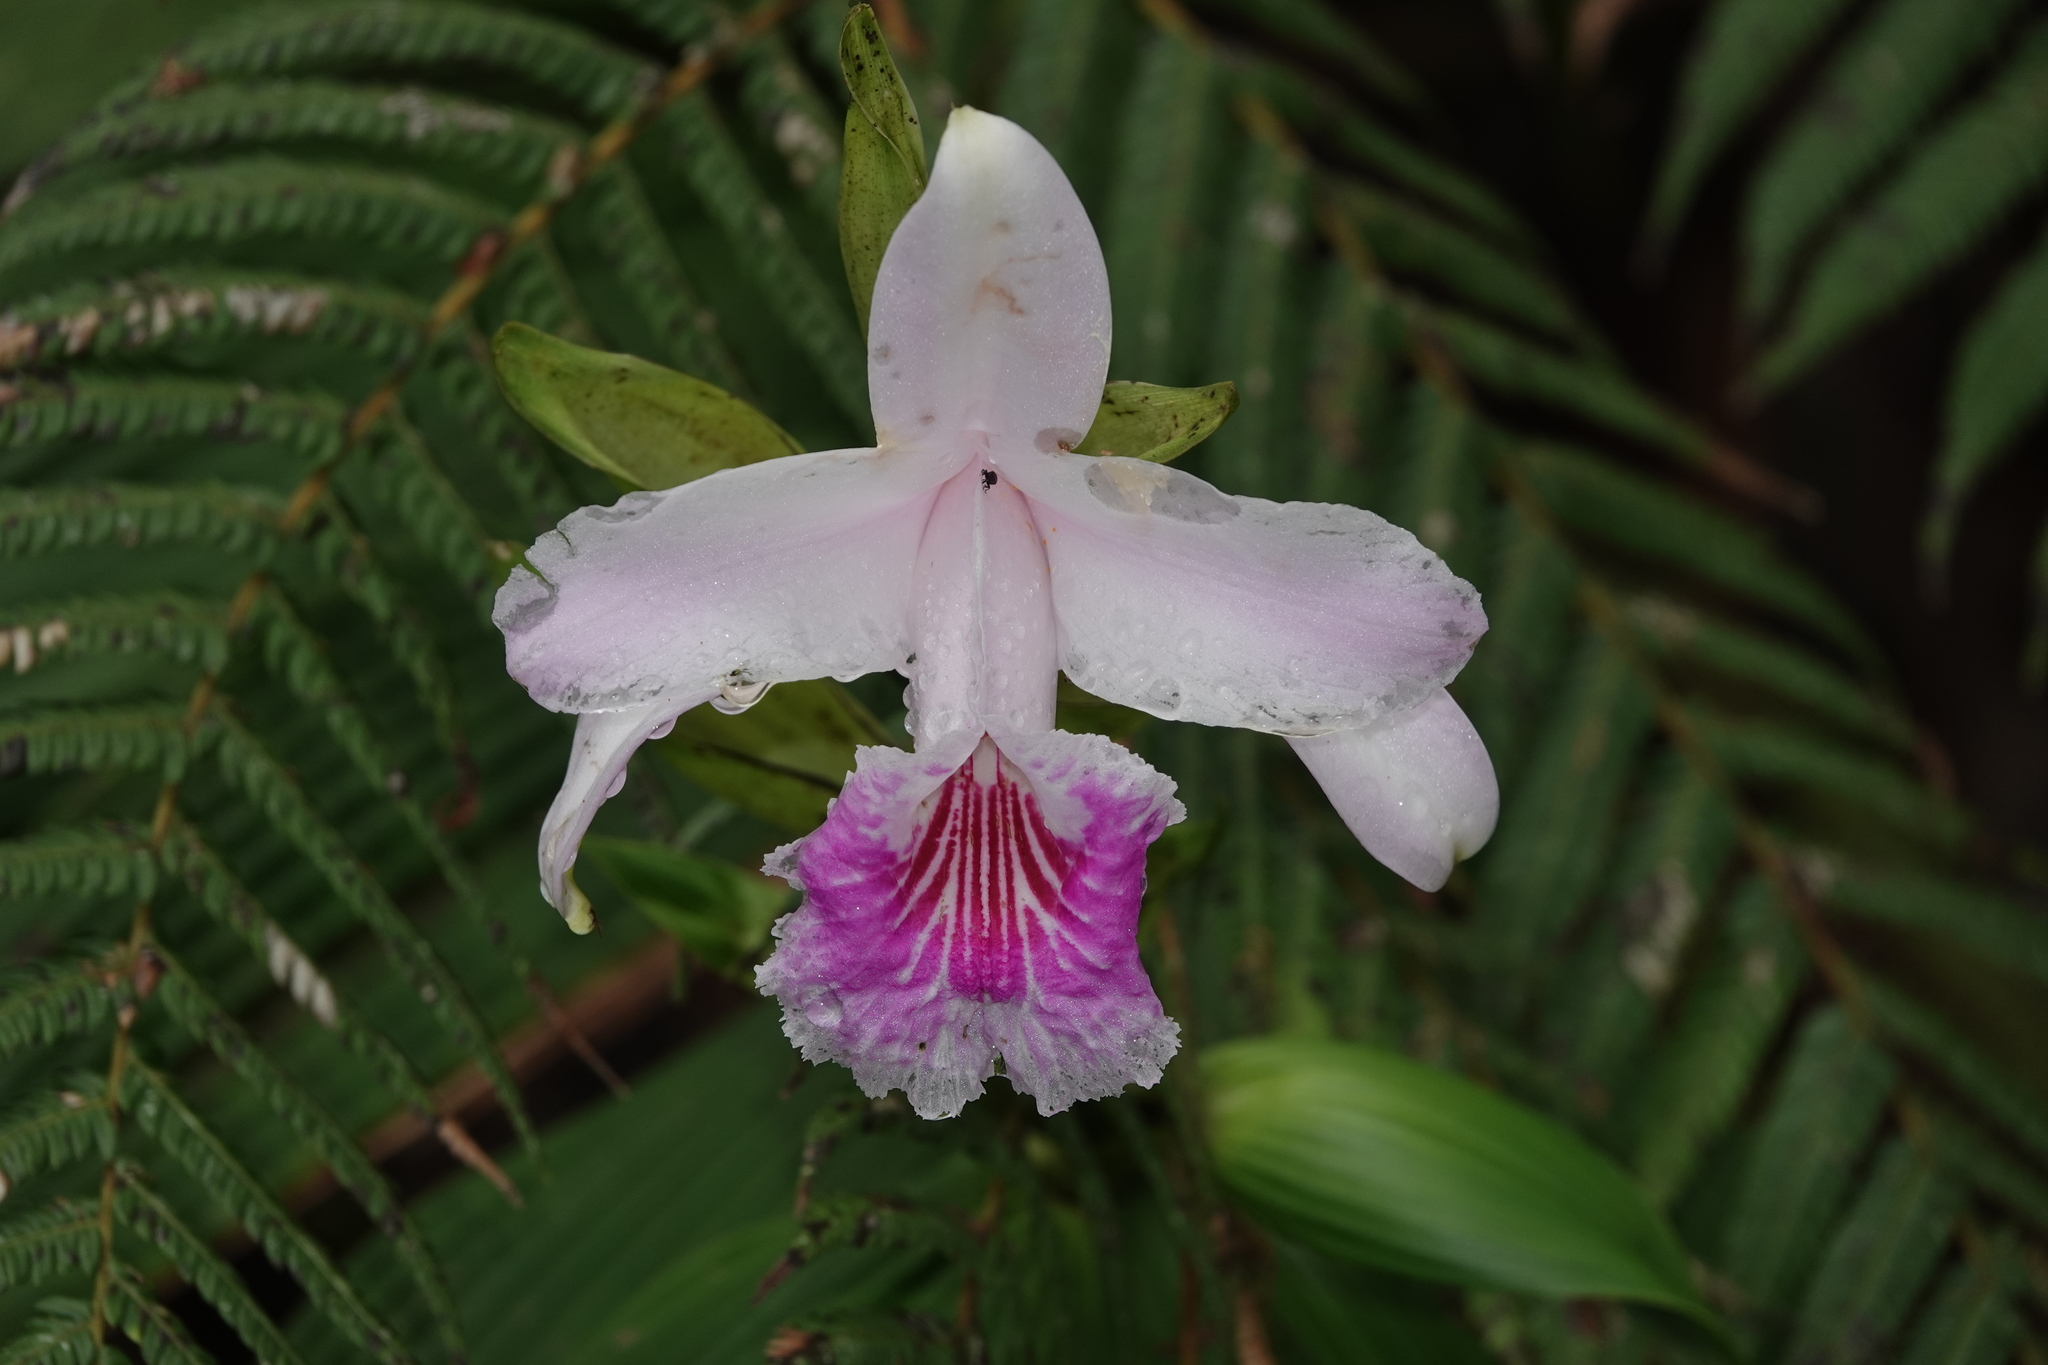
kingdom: Plantae
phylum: Tracheophyta
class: Liliopsida
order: Asparagales
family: Orchidaceae
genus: Sobralia
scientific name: Sobralia rosea
